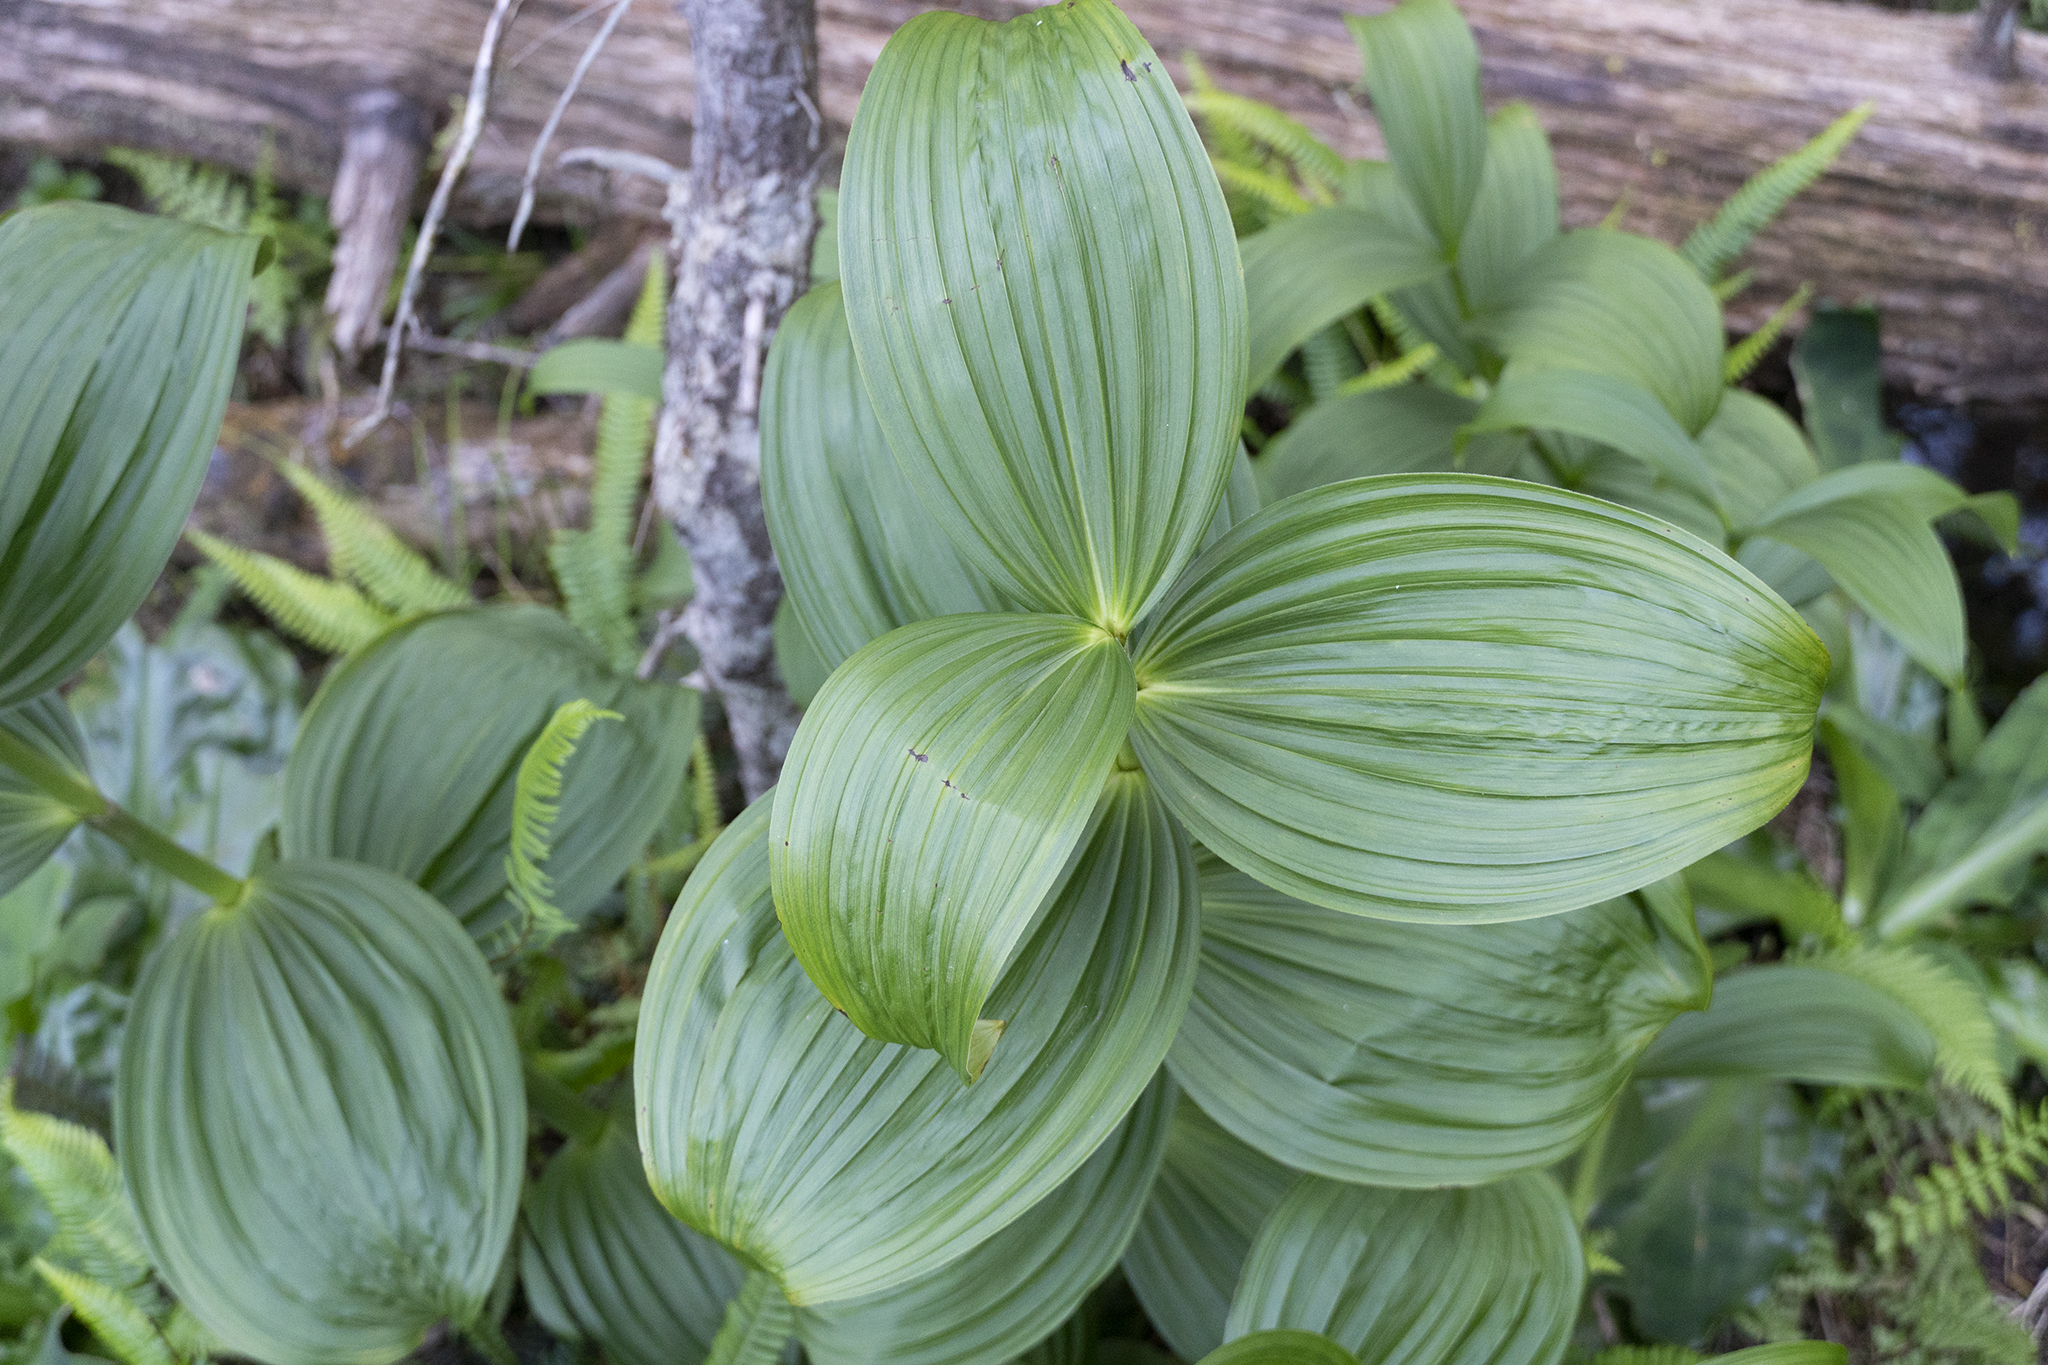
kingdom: Plantae
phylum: Tracheophyta
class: Liliopsida
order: Liliales
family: Melanthiaceae
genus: Veratrum
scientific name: Veratrum viride
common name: American false hellebore
